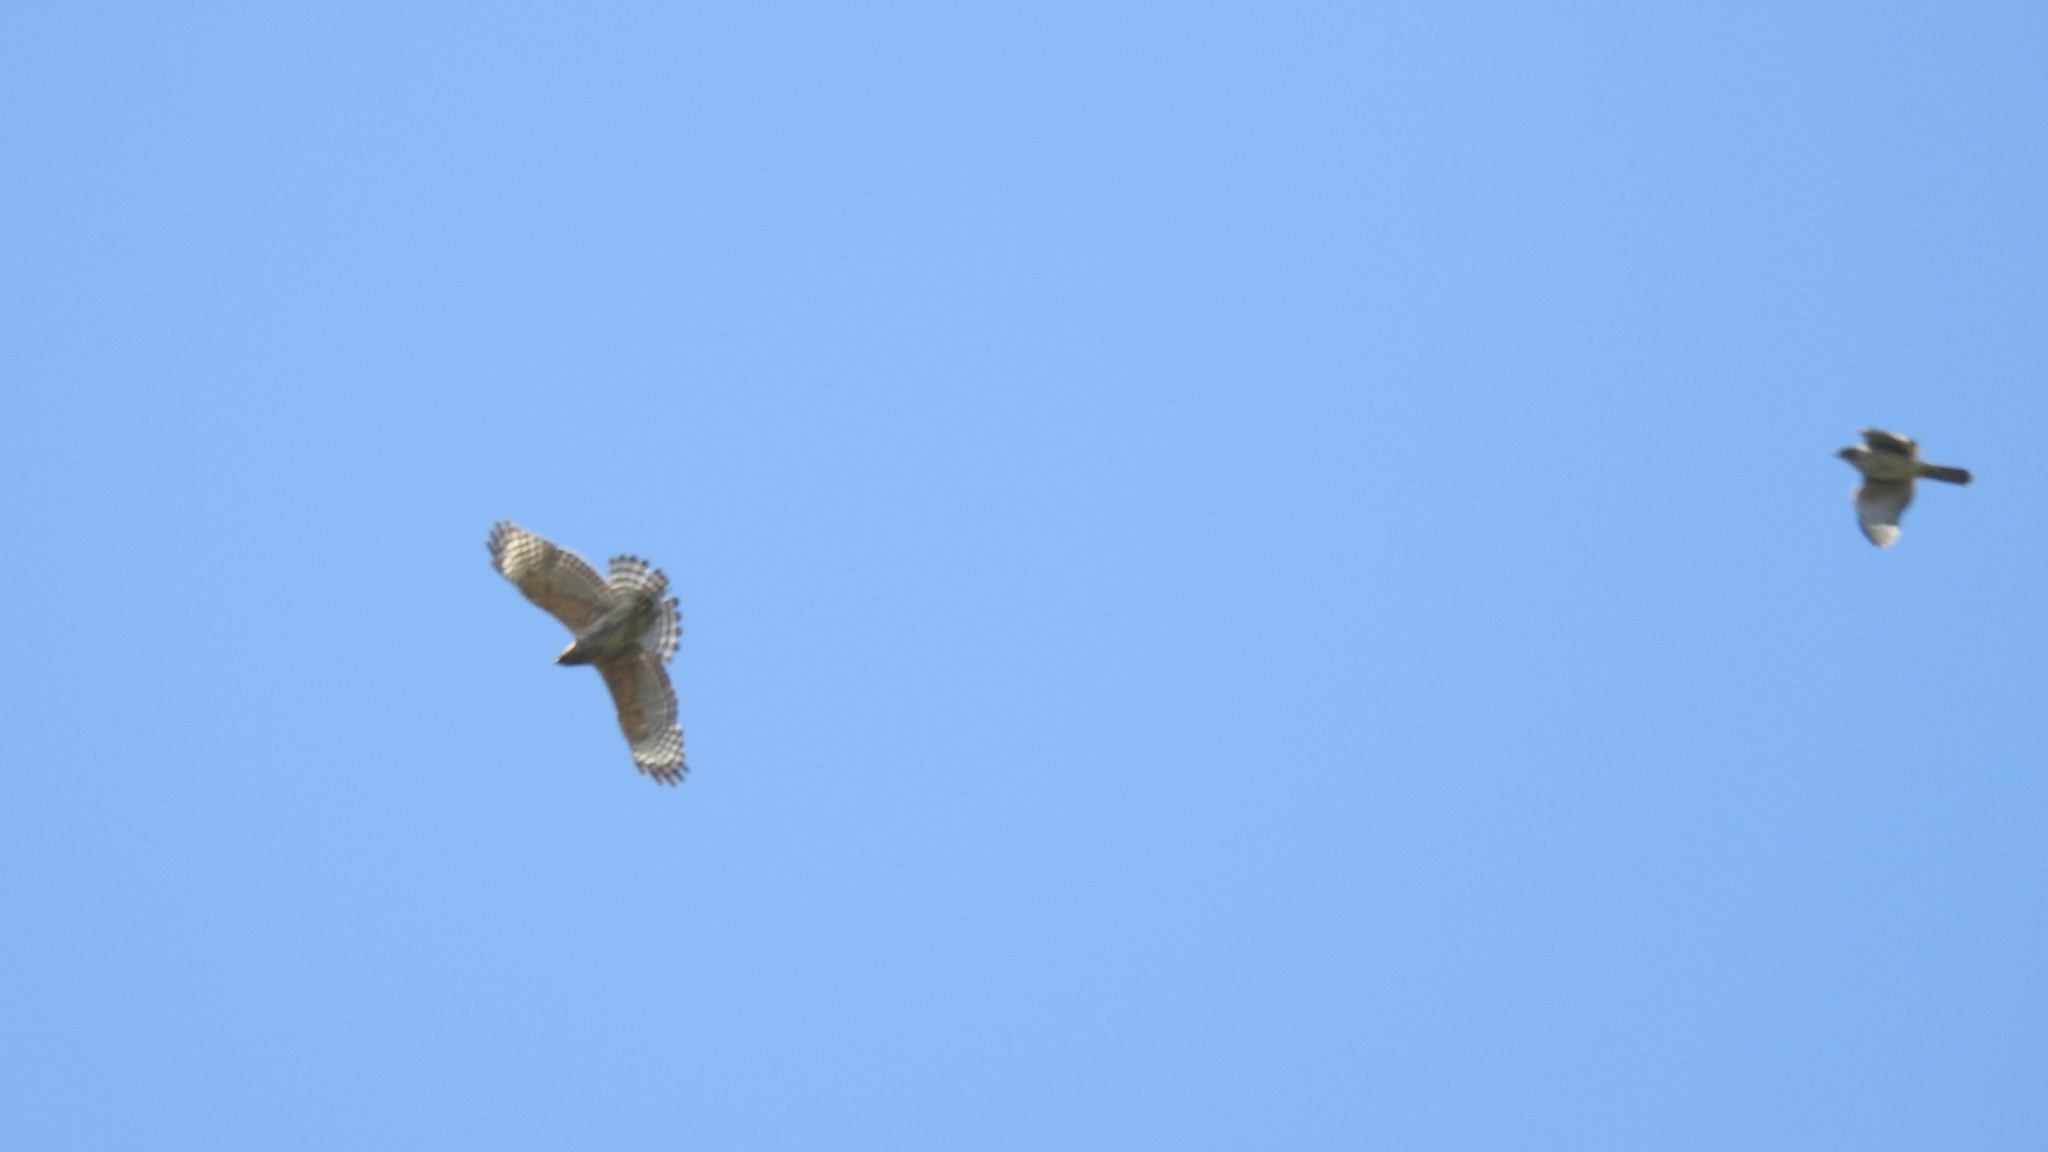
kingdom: Animalia
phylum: Chordata
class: Aves
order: Accipitriformes
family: Accipitridae
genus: Buteo
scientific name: Buteo lineatus
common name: Red-shouldered hawk
